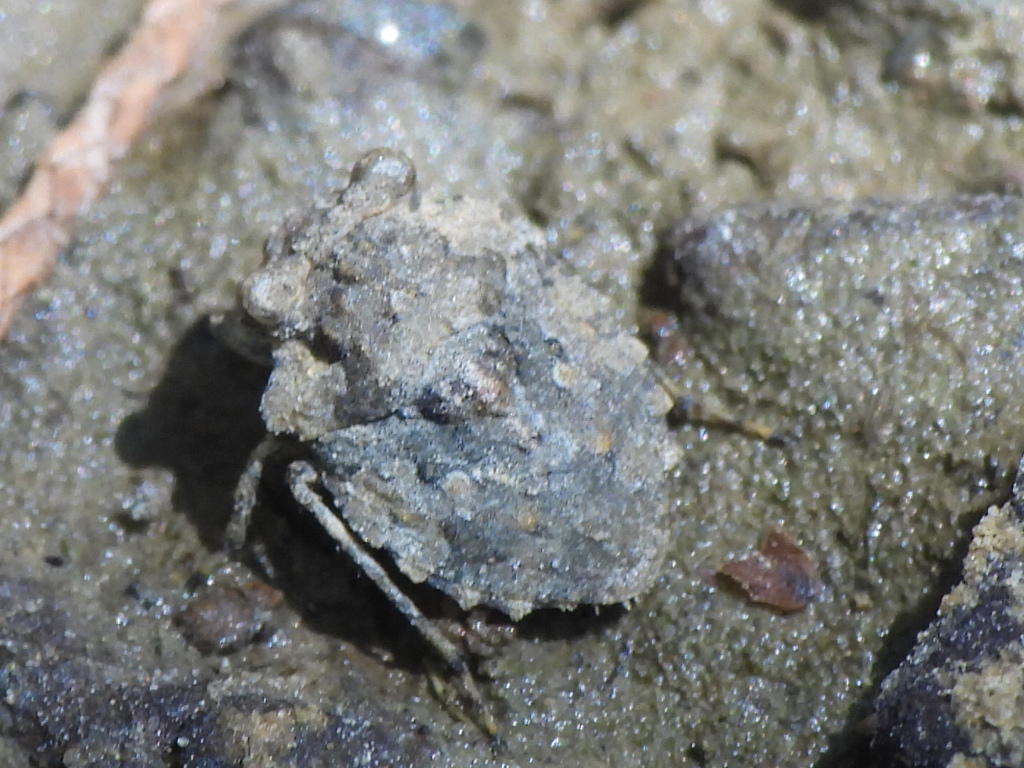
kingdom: Animalia
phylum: Arthropoda
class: Insecta
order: Hemiptera
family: Gelastocoridae
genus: Gelastocoris
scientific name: Gelastocoris oculatus
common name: Toad bug
